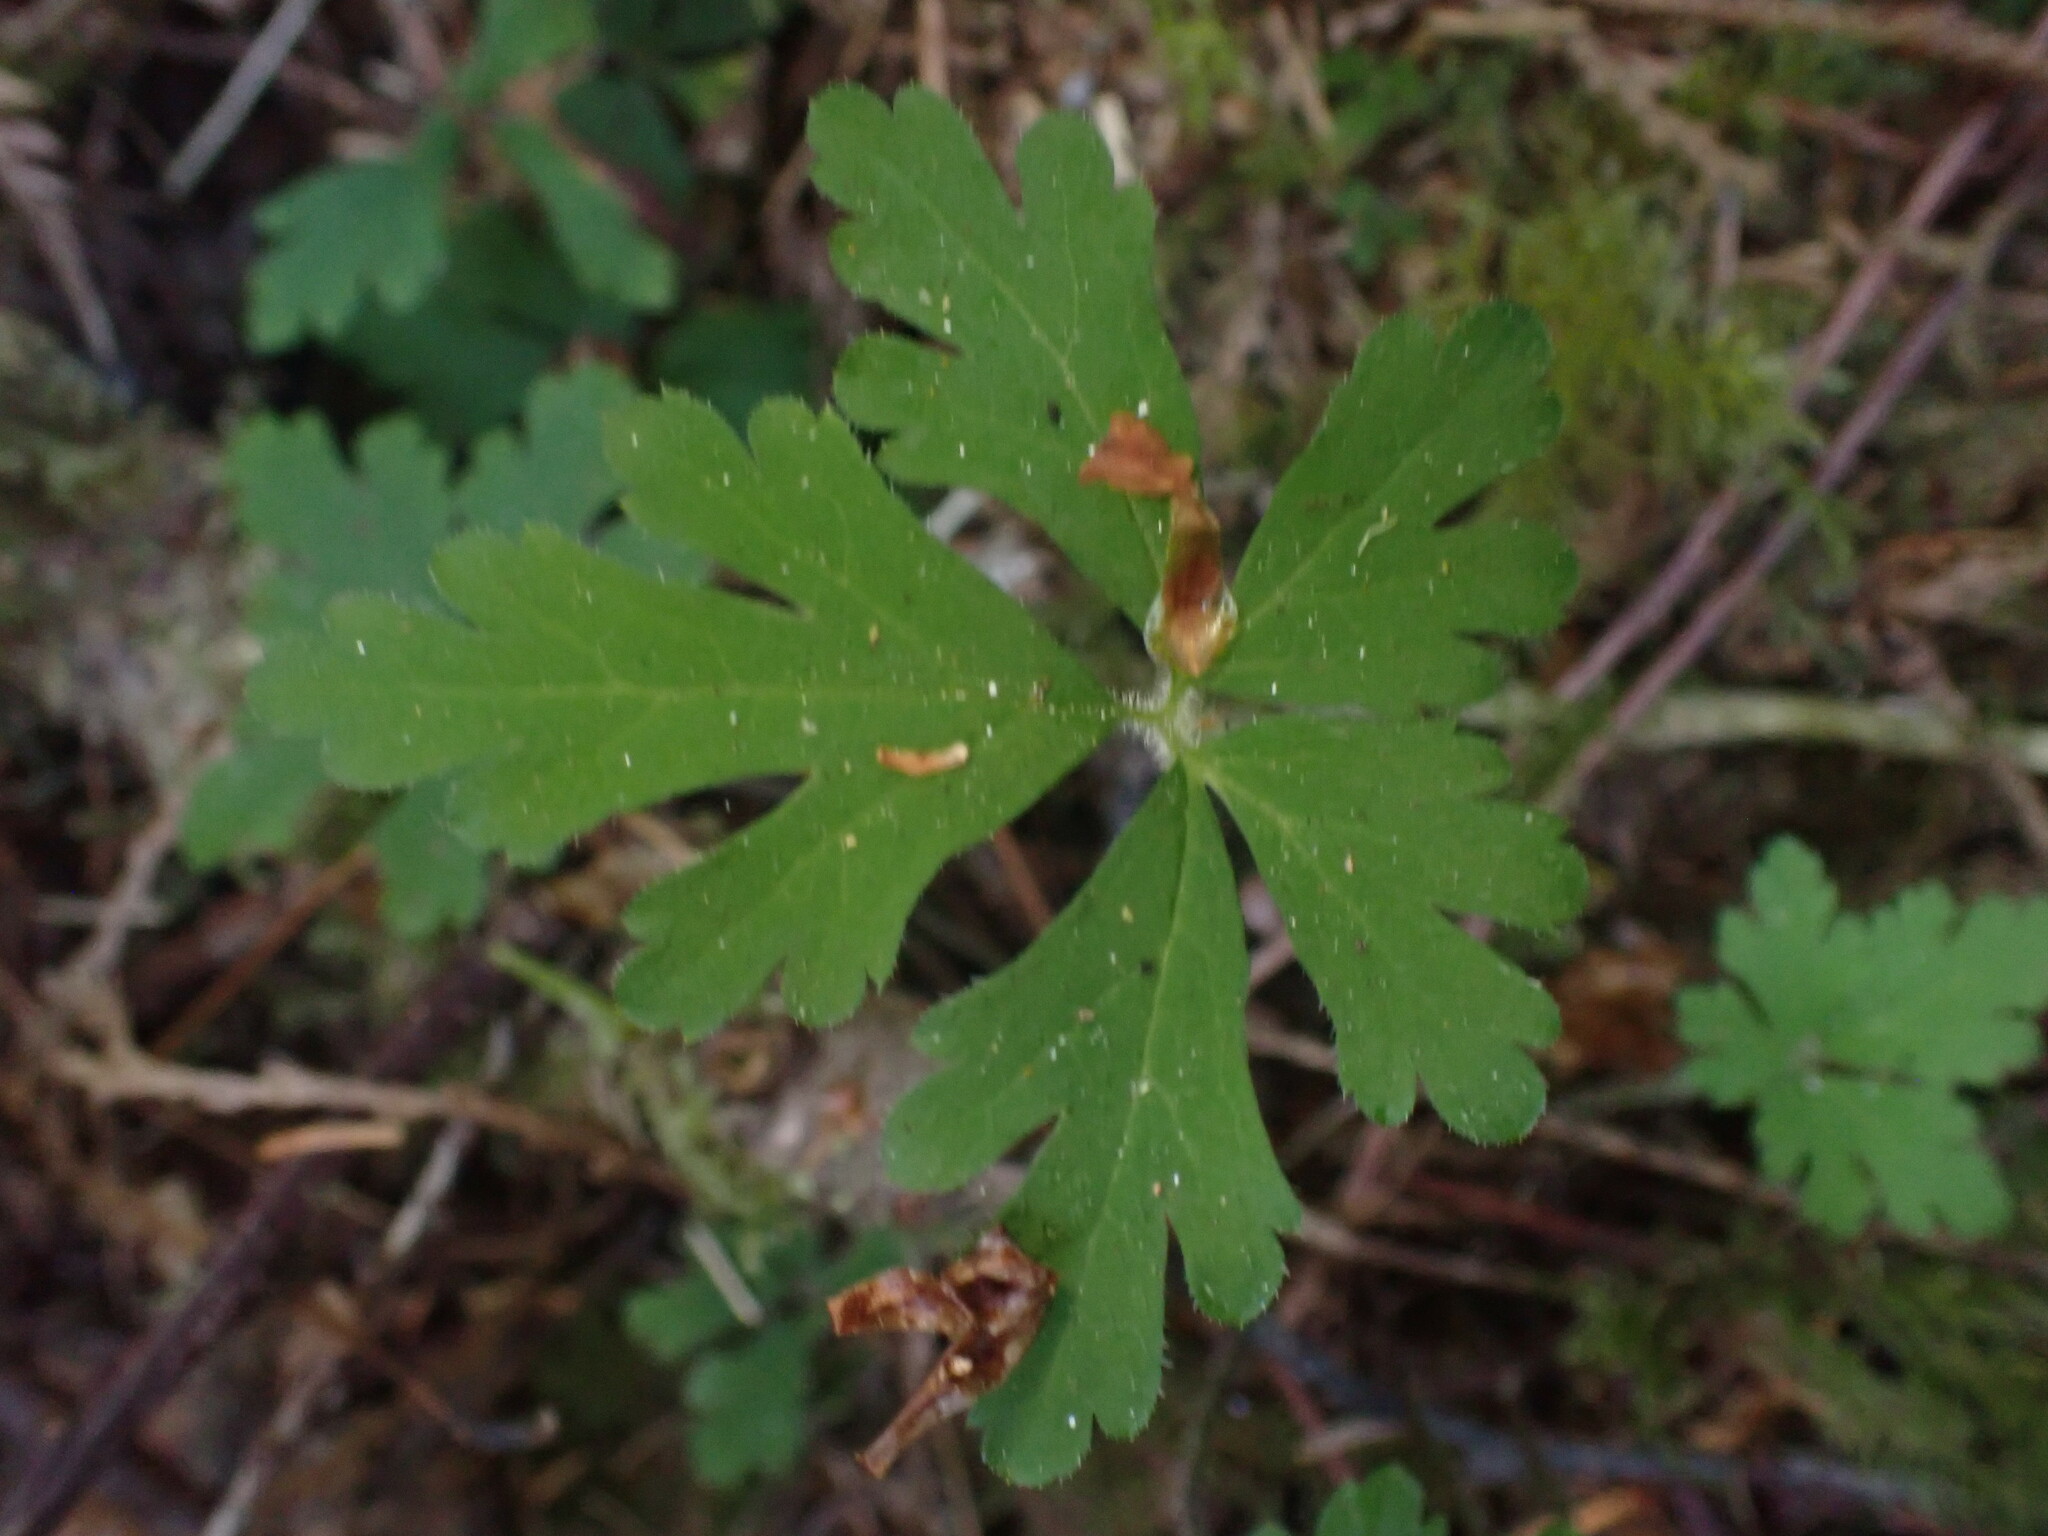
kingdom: Plantae
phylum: Tracheophyta
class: Magnoliopsida
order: Saxifragales
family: Saxifragaceae
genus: Tiarella
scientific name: Tiarella trifoliata
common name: Sugar-scoop
